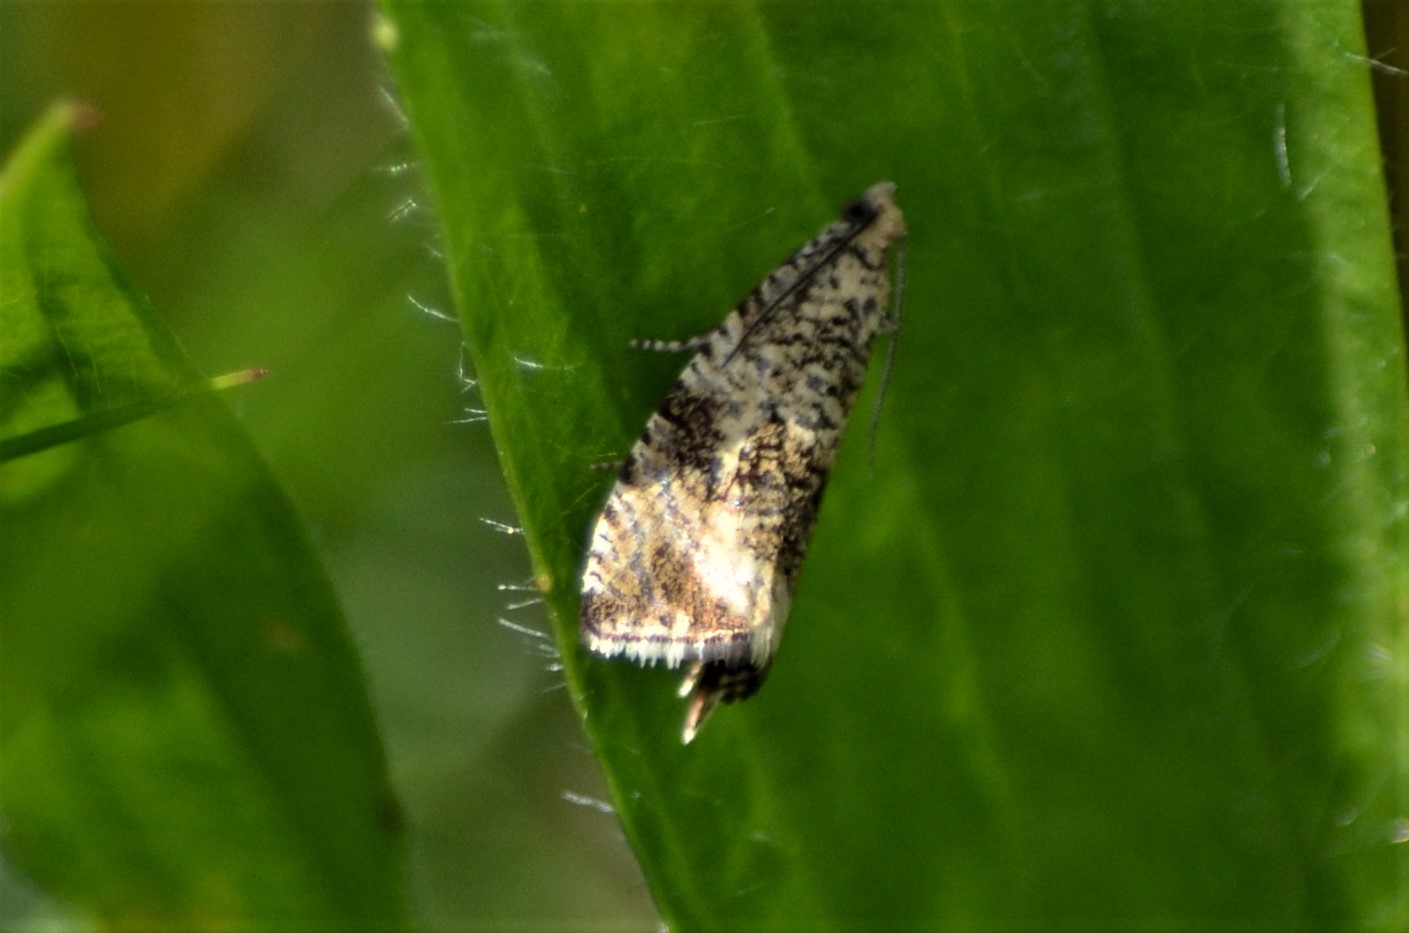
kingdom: Animalia
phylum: Arthropoda
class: Insecta
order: Lepidoptera
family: Tortricidae
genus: Syricoris
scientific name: Syricoris lacunana
